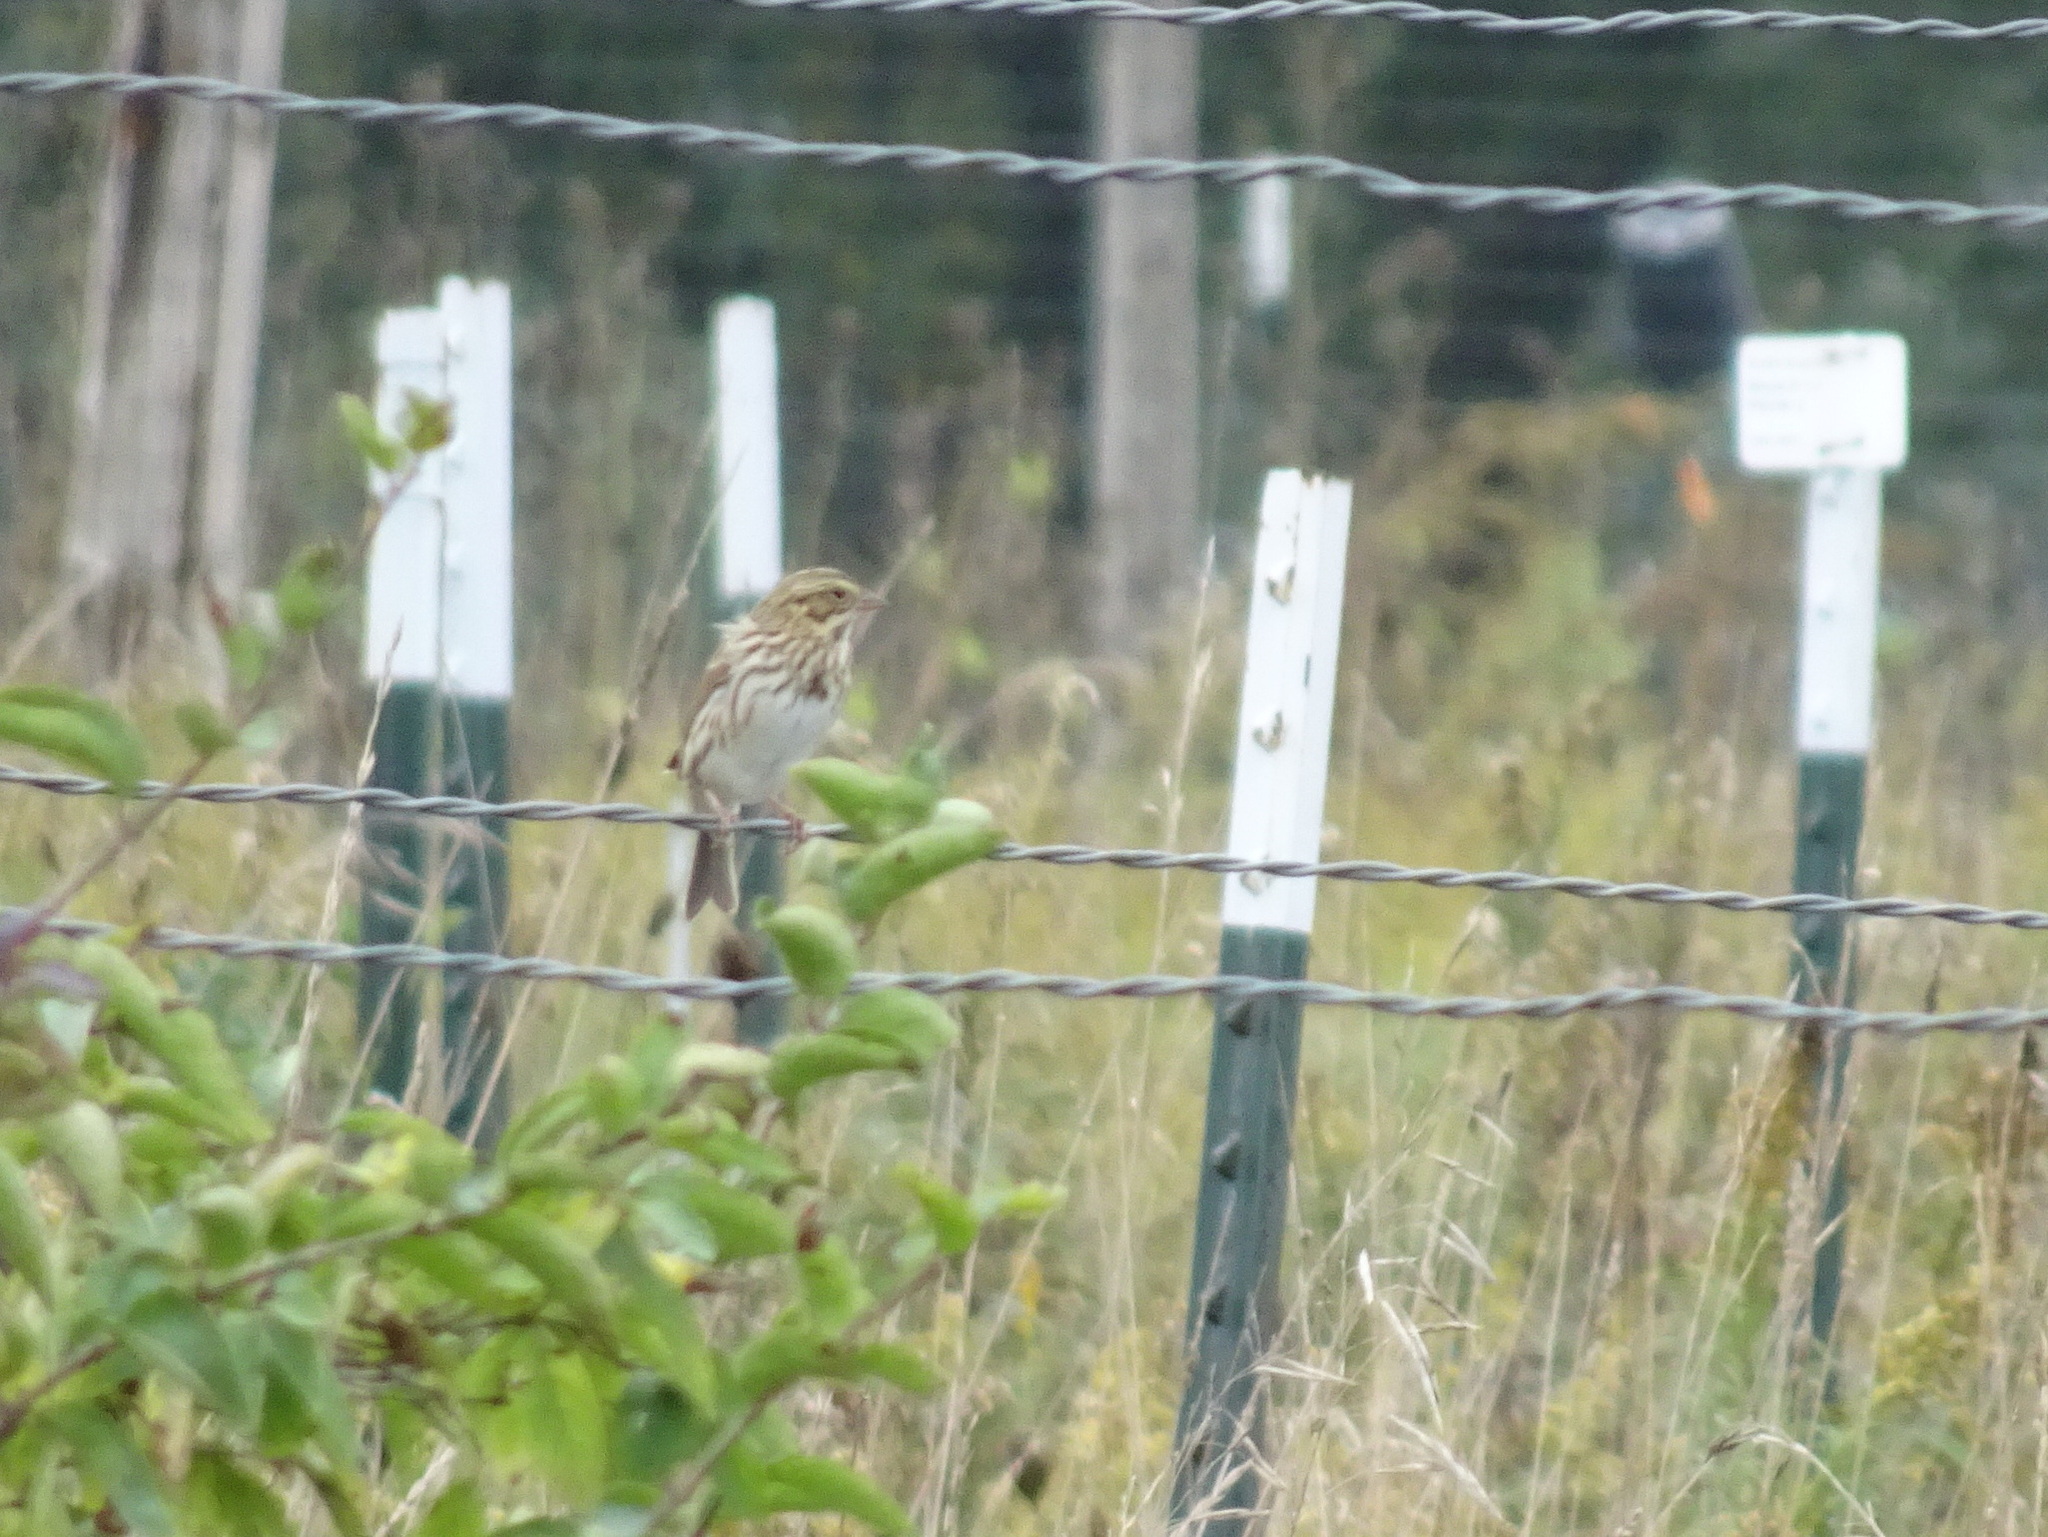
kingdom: Animalia
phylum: Chordata
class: Aves
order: Passeriformes
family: Passerellidae
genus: Passerculus
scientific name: Passerculus sandwichensis
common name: Savannah sparrow
